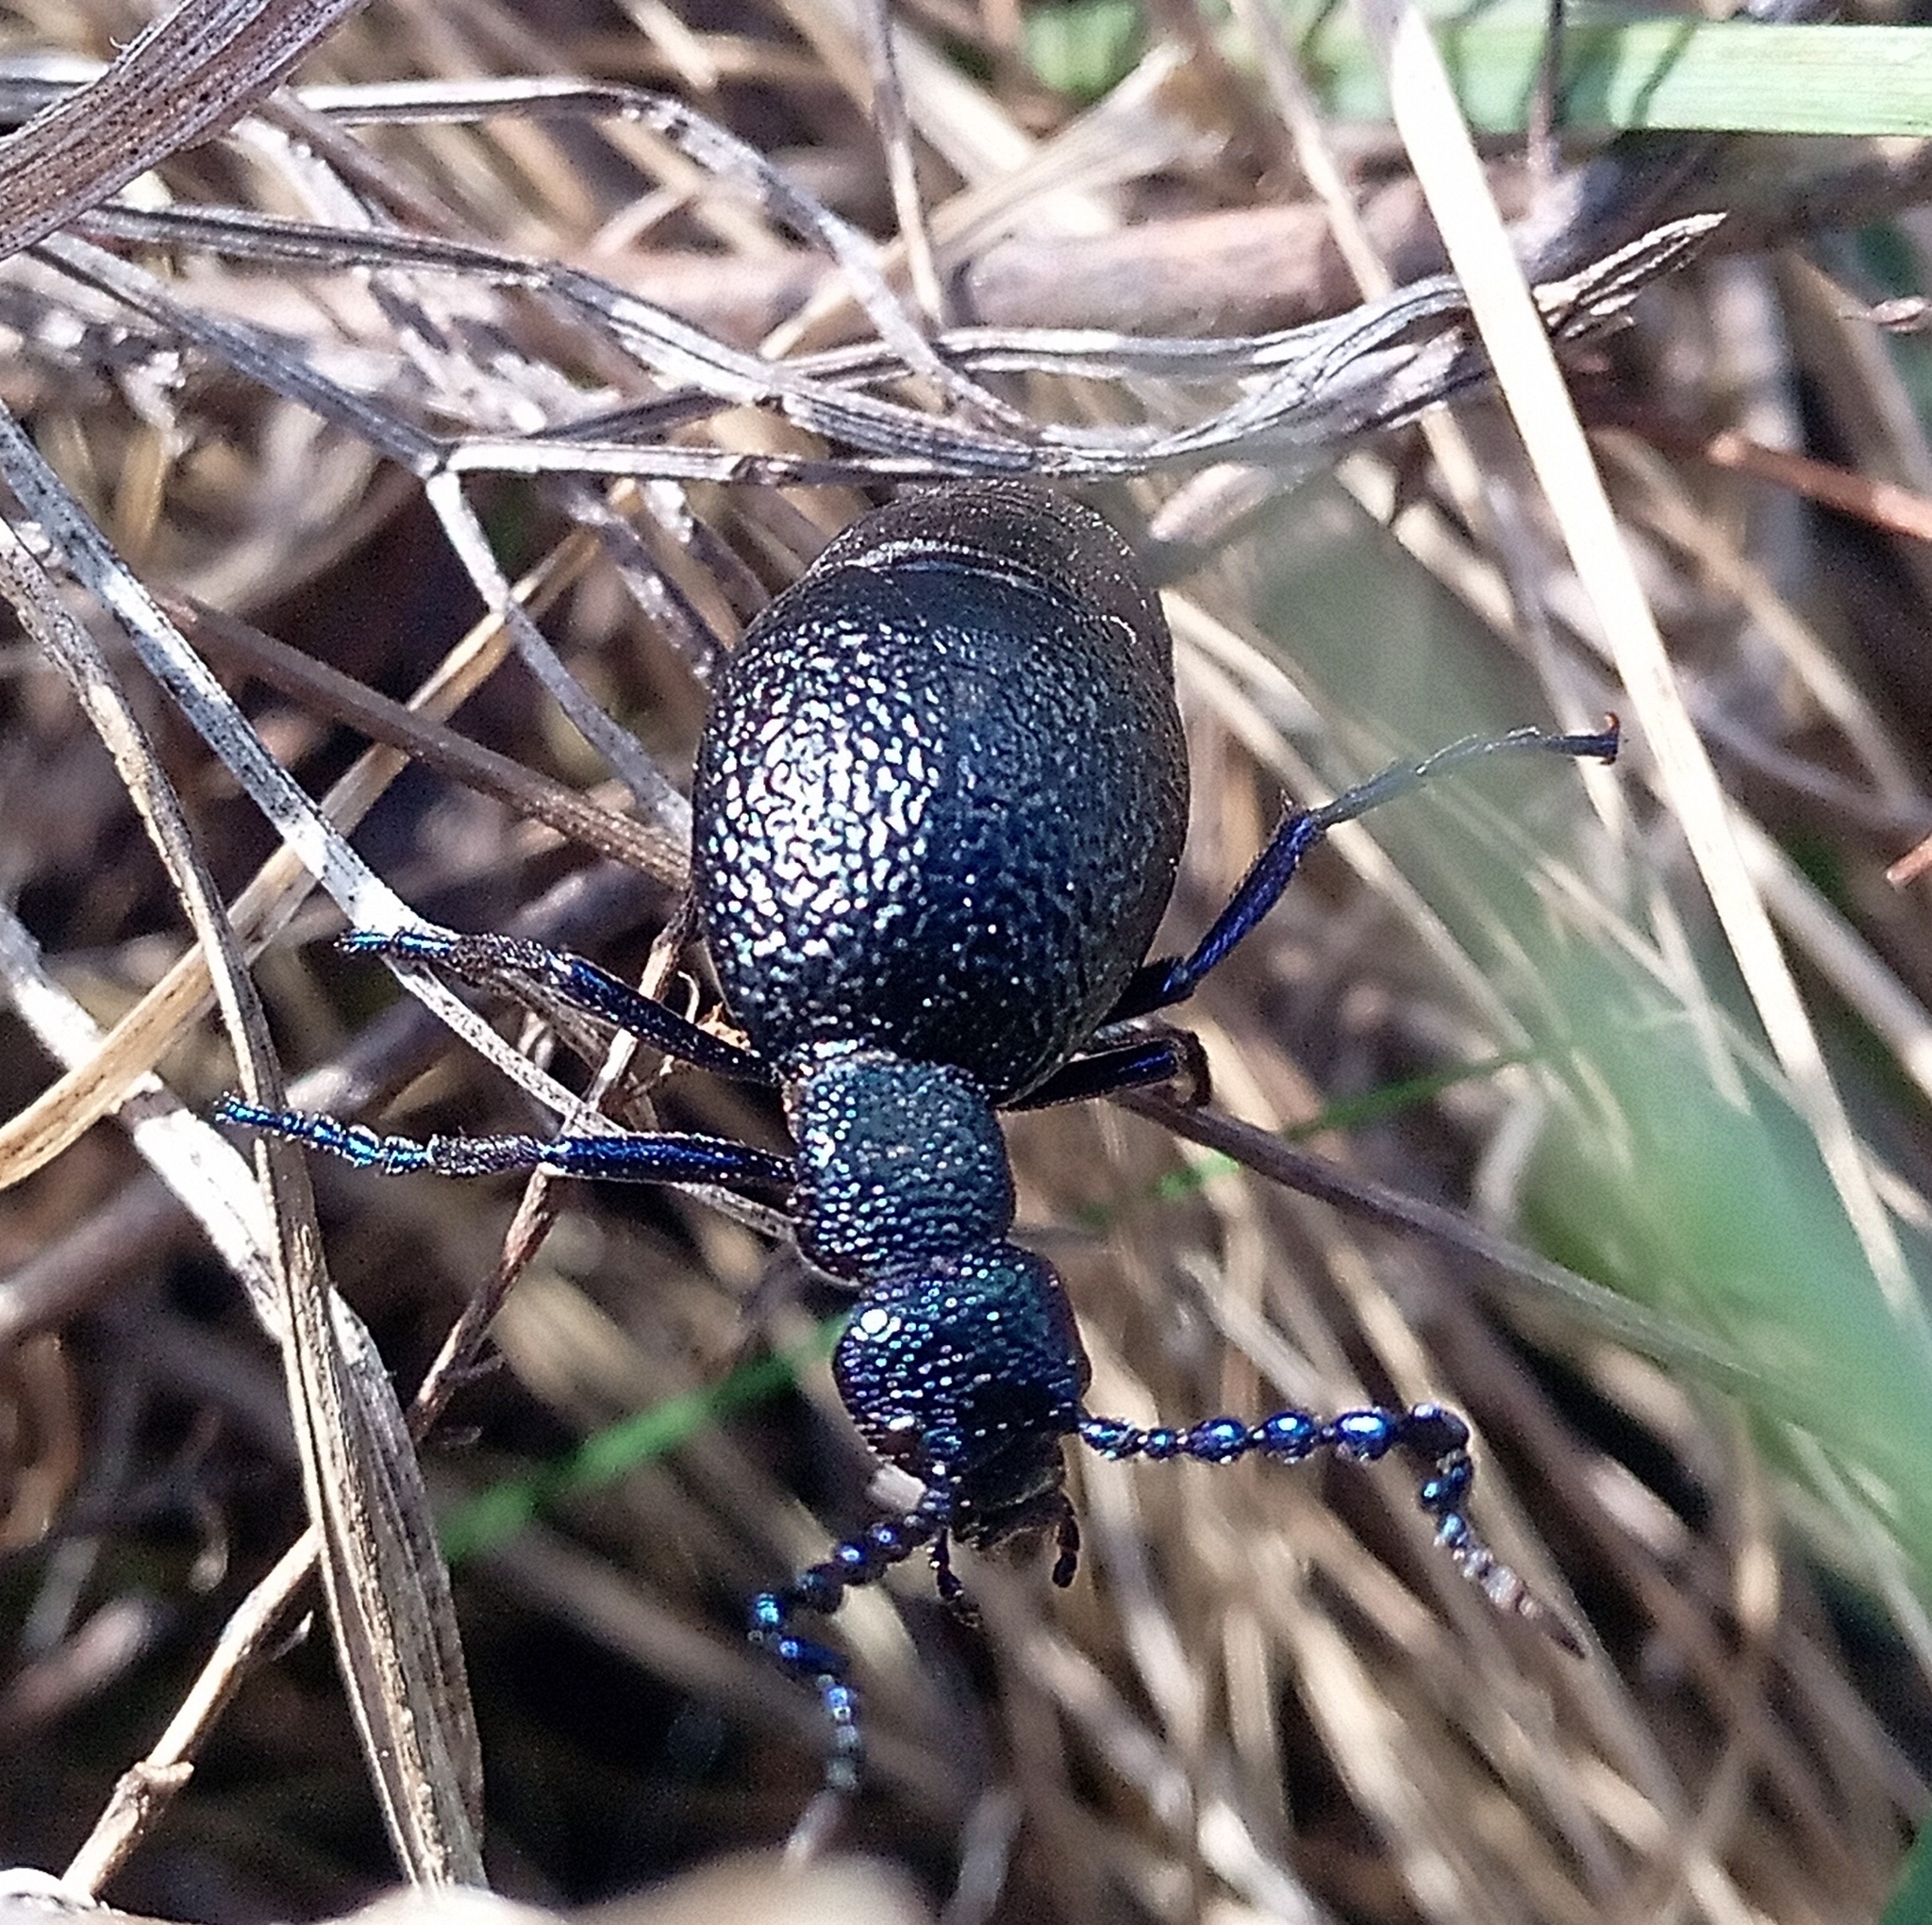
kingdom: Animalia
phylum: Arthropoda
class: Insecta
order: Coleoptera
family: Meloidae
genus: Meloe
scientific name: Meloe proscarabaeus
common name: Black oil-beetle
